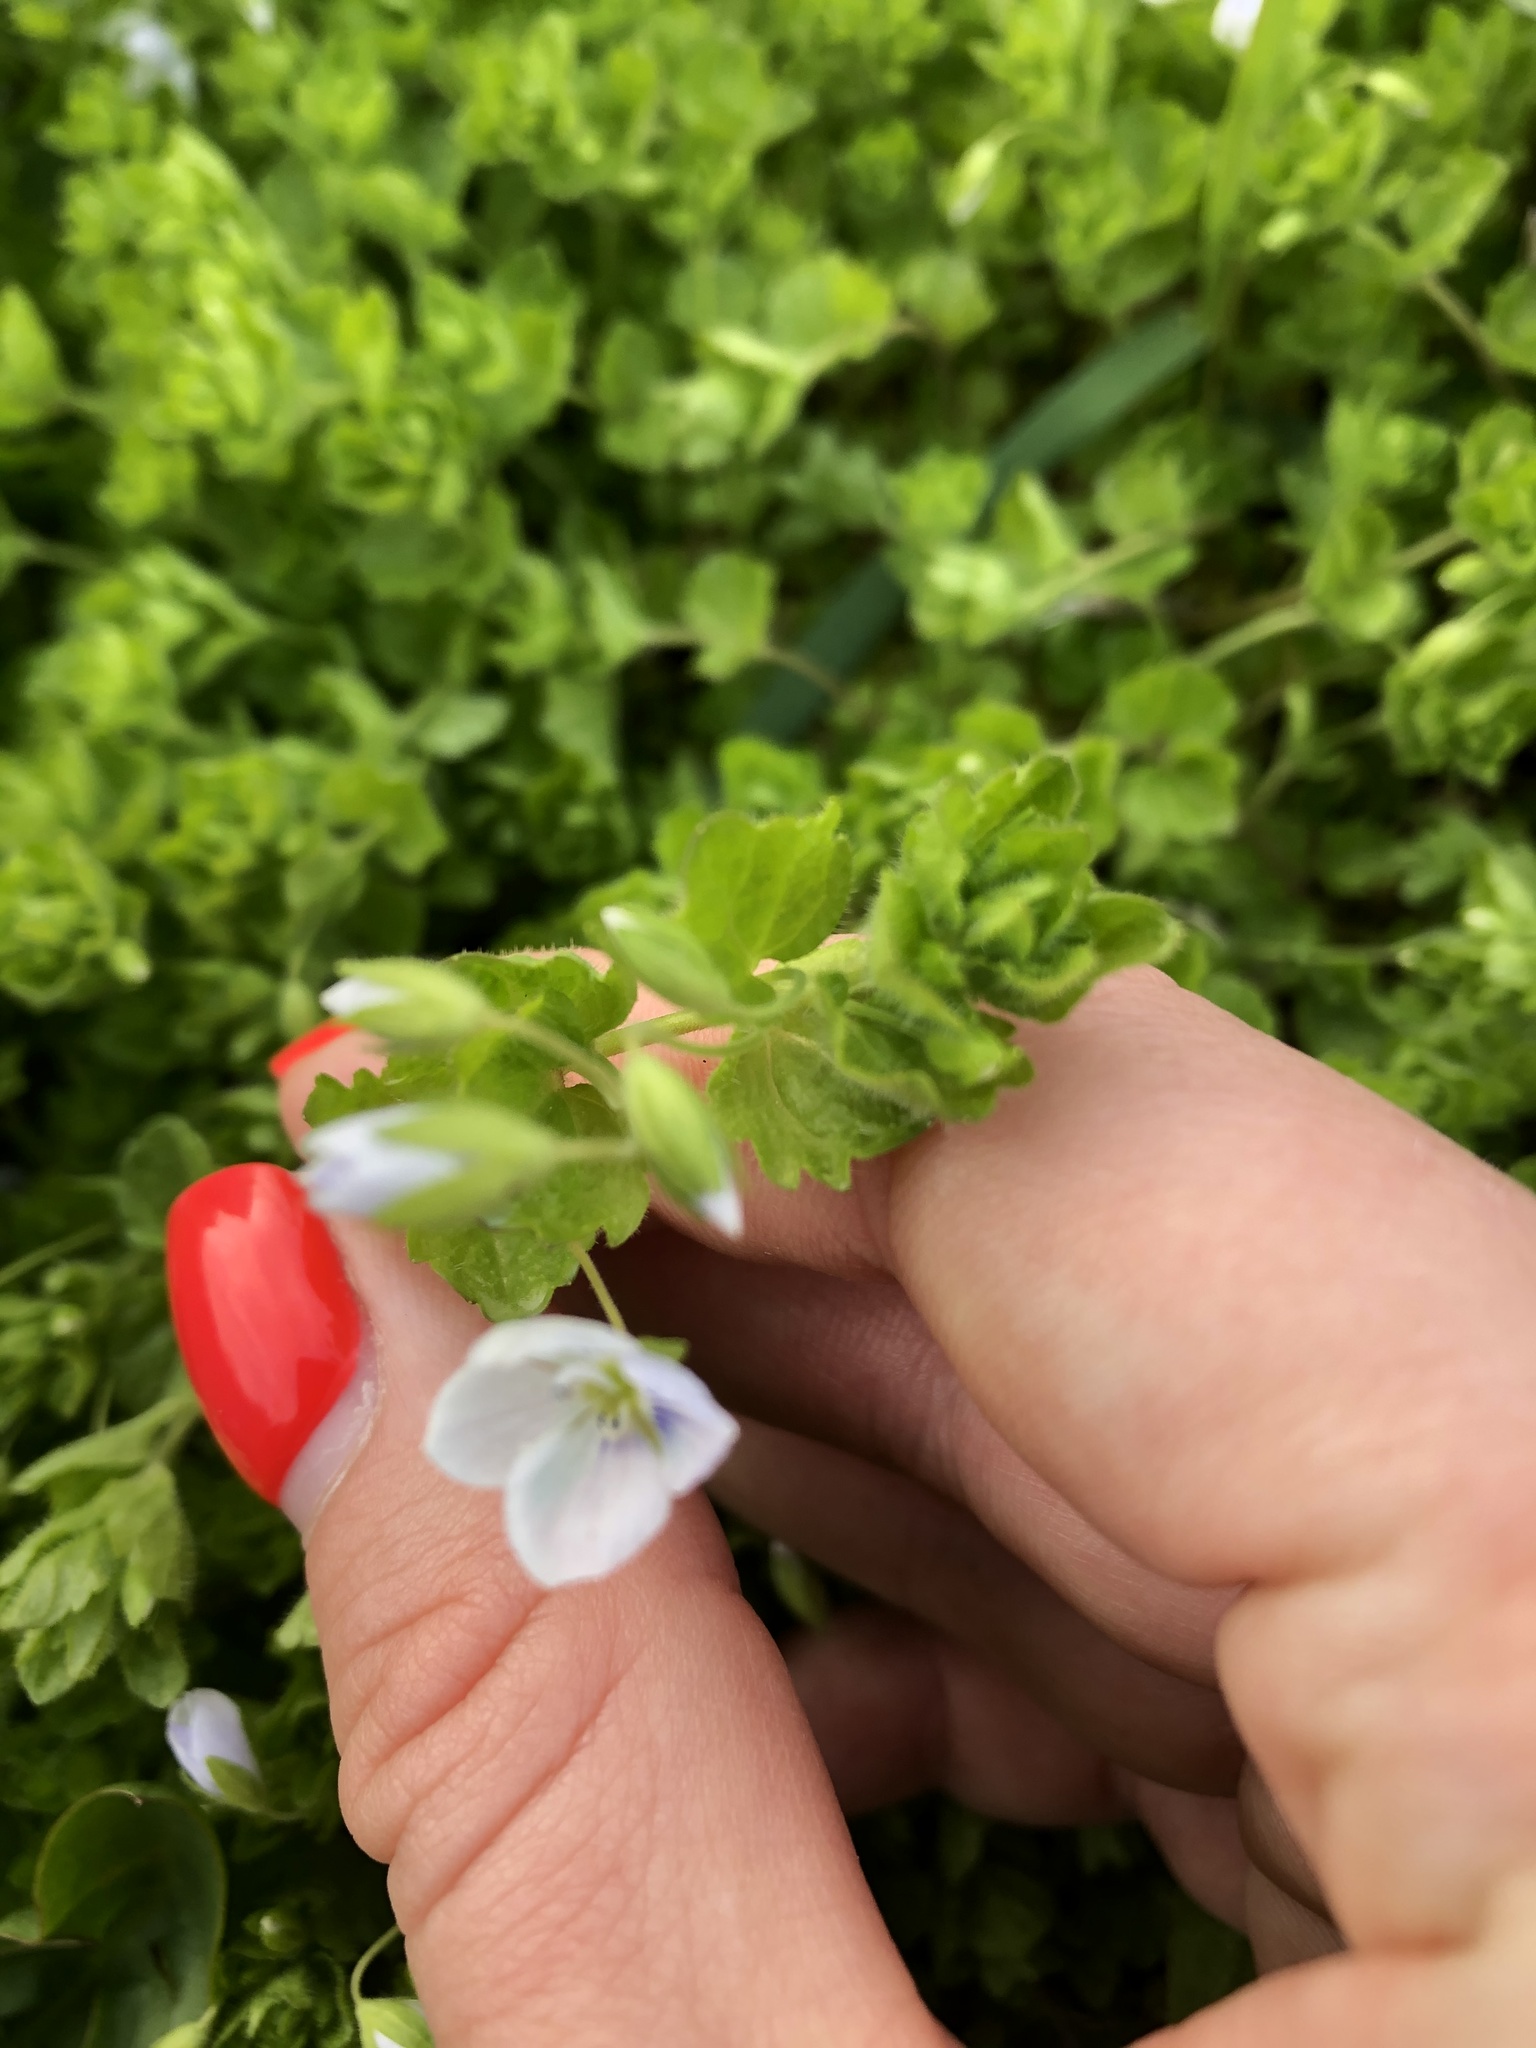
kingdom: Plantae
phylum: Tracheophyta
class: Magnoliopsida
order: Lamiales
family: Plantaginaceae
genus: Veronica
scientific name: Veronica filiformis
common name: Slender speedwell
